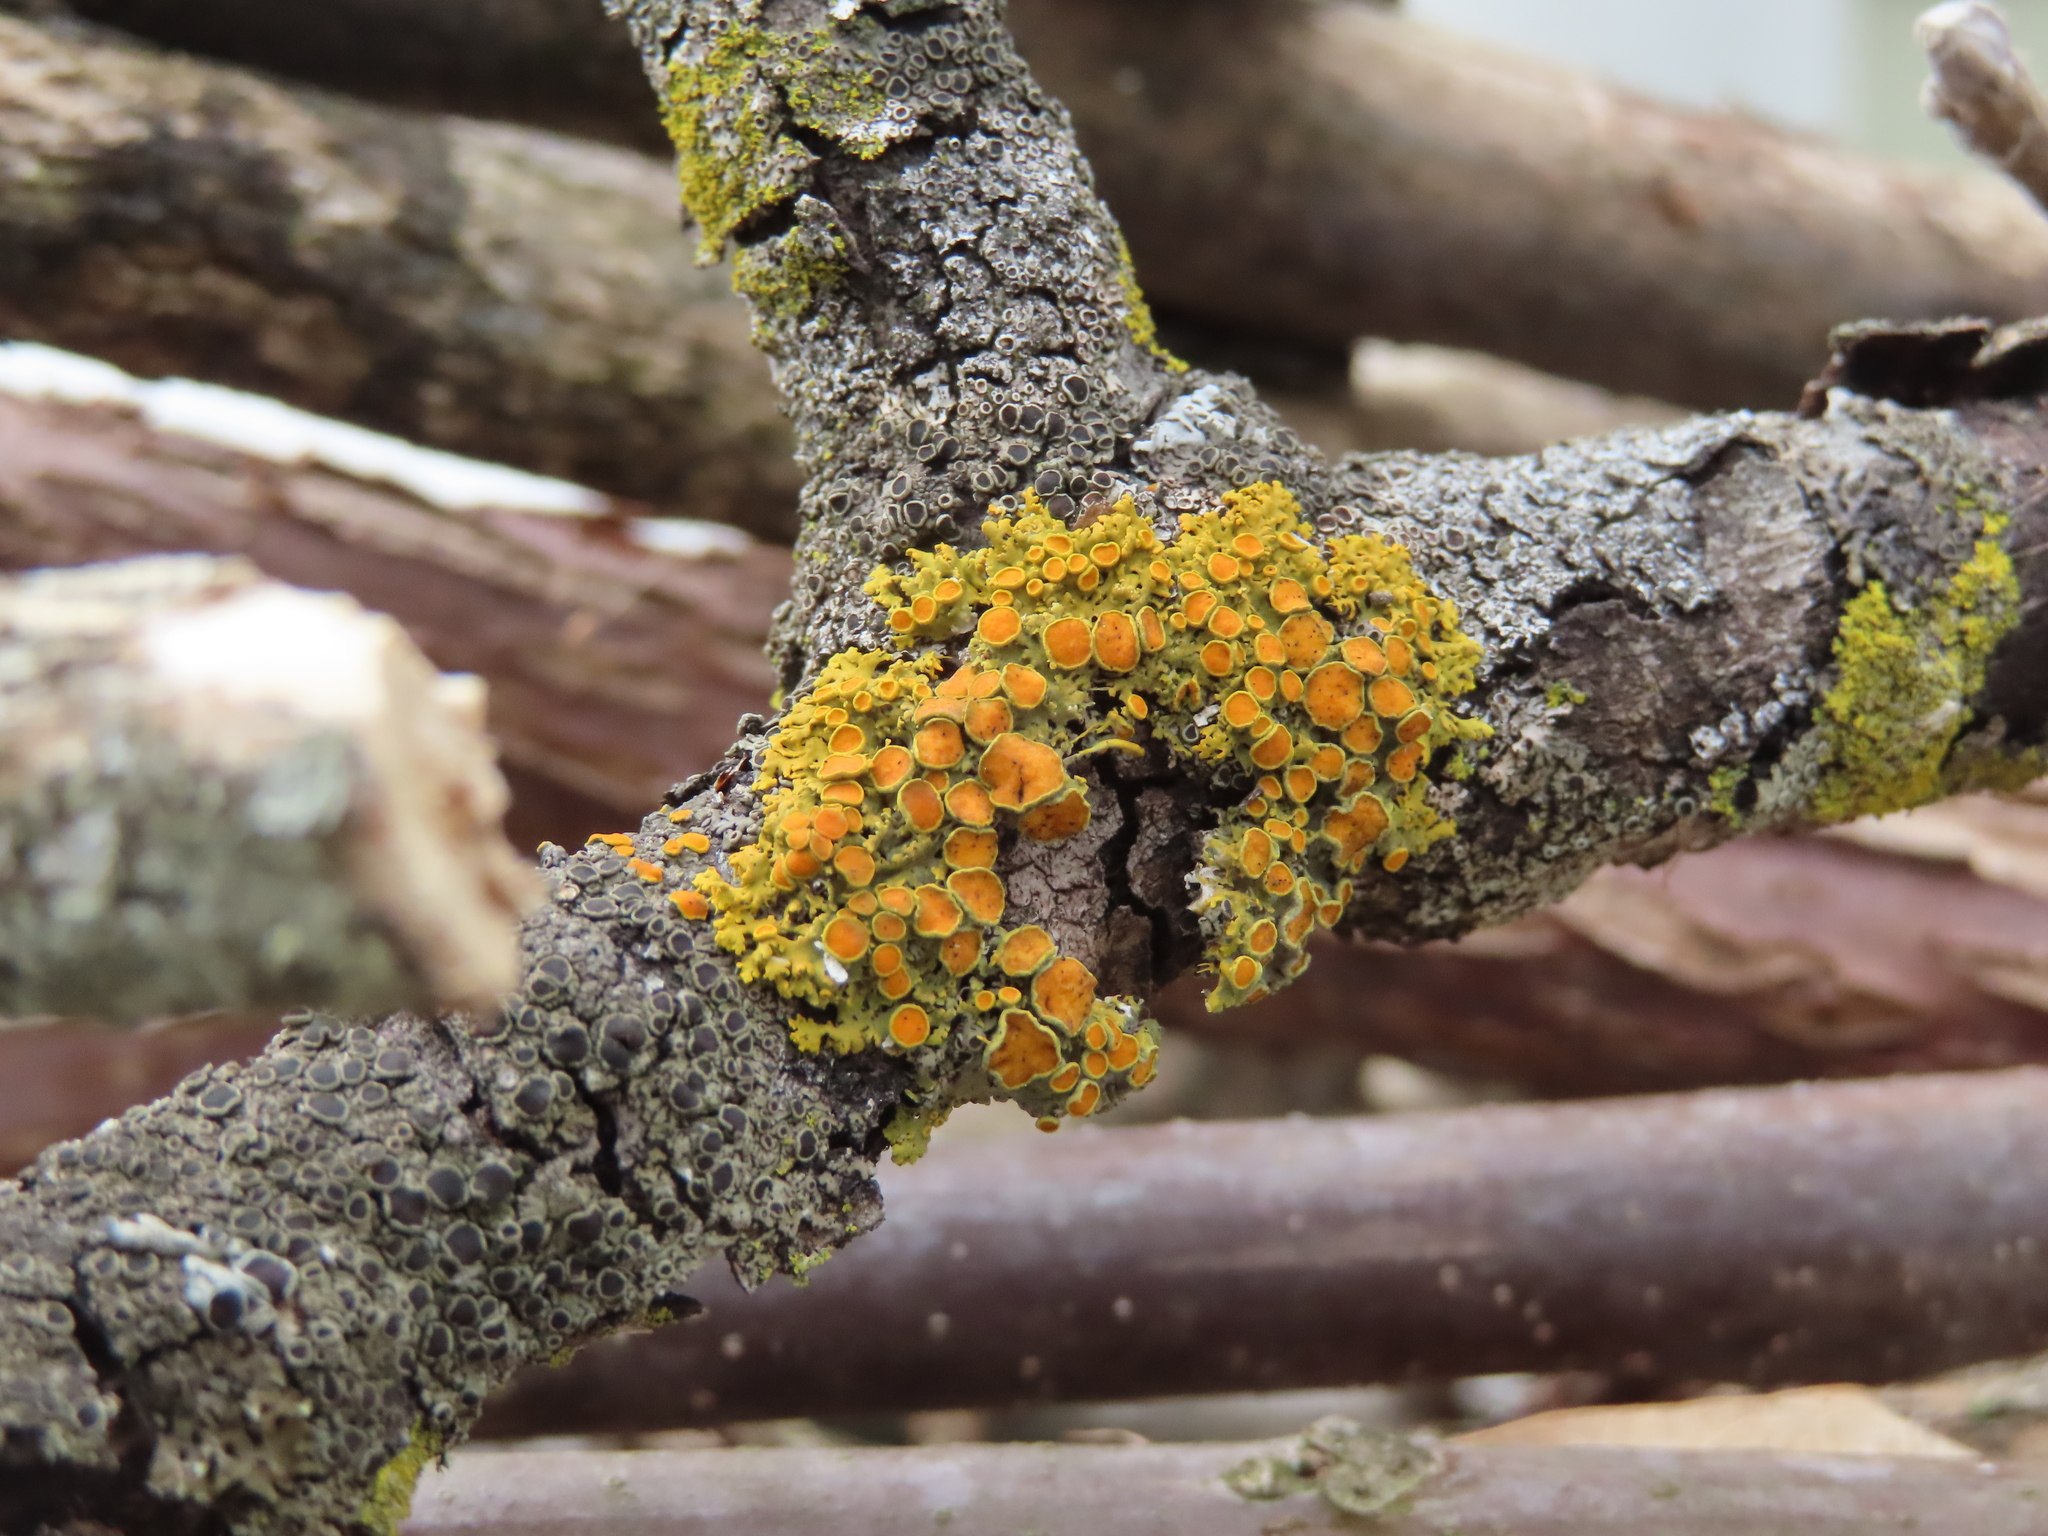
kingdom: Fungi
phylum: Ascomycota
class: Lecanoromycetes
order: Teloschistales
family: Teloschistaceae
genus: Gallowayella
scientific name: Gallowayella hasseana
